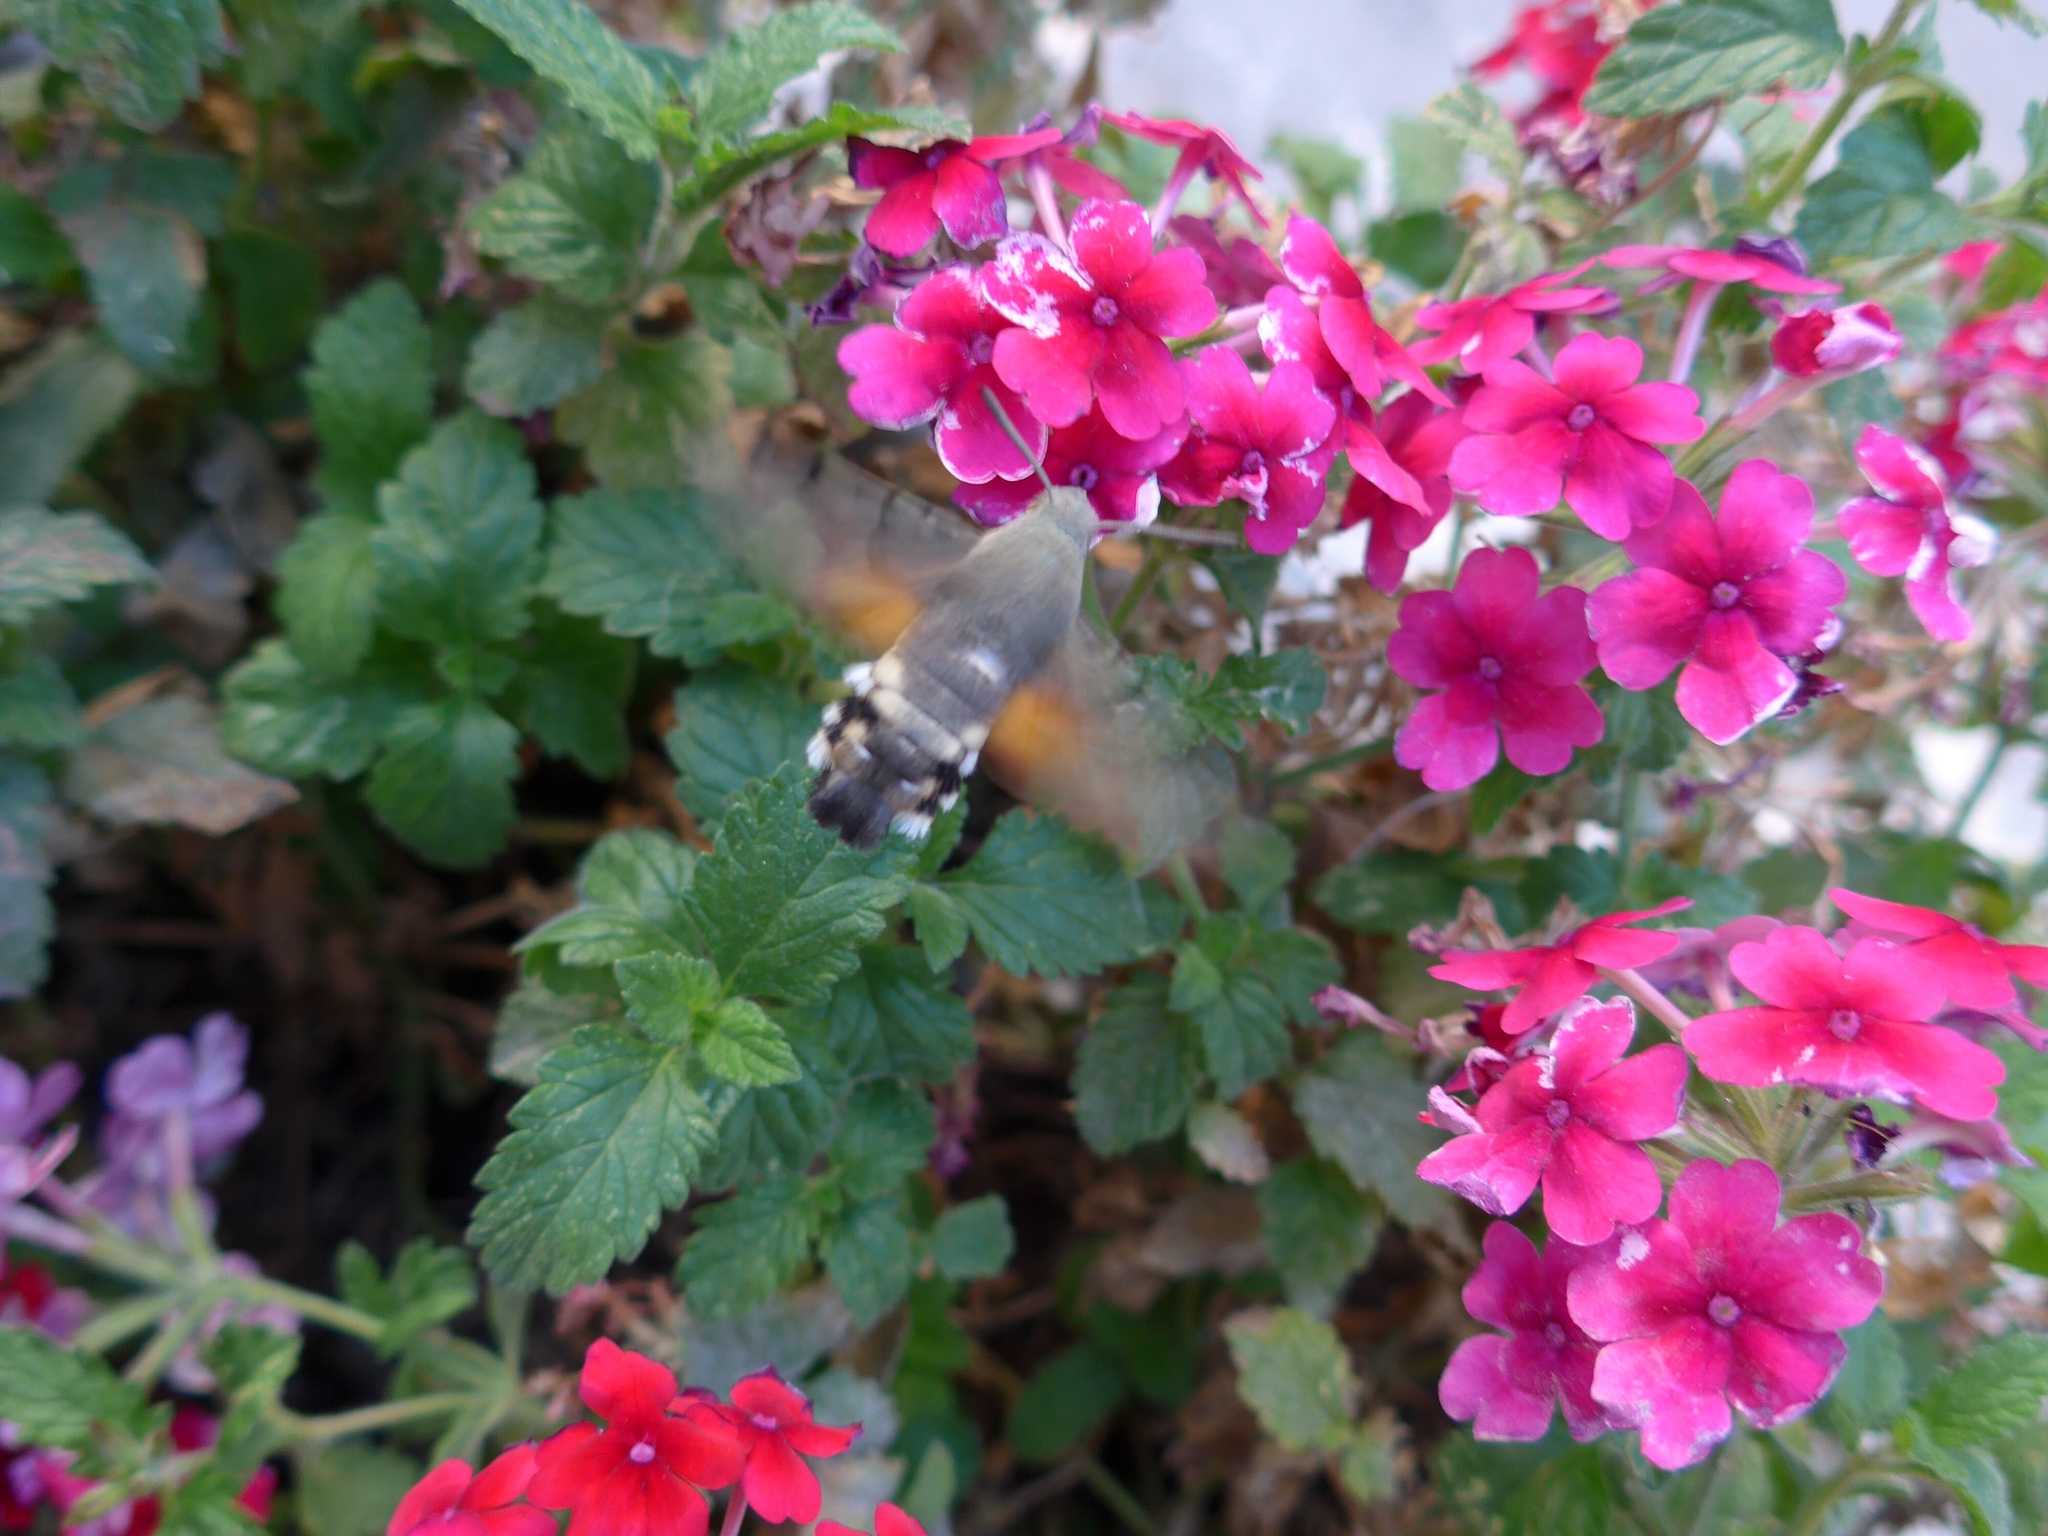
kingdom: Animalia
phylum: Arthropoda
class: Insecta
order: Lepidoptera
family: Sphingidae
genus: Macroglossum
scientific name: Macroglossum stellatarum
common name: Humming-bird hawk-moth
